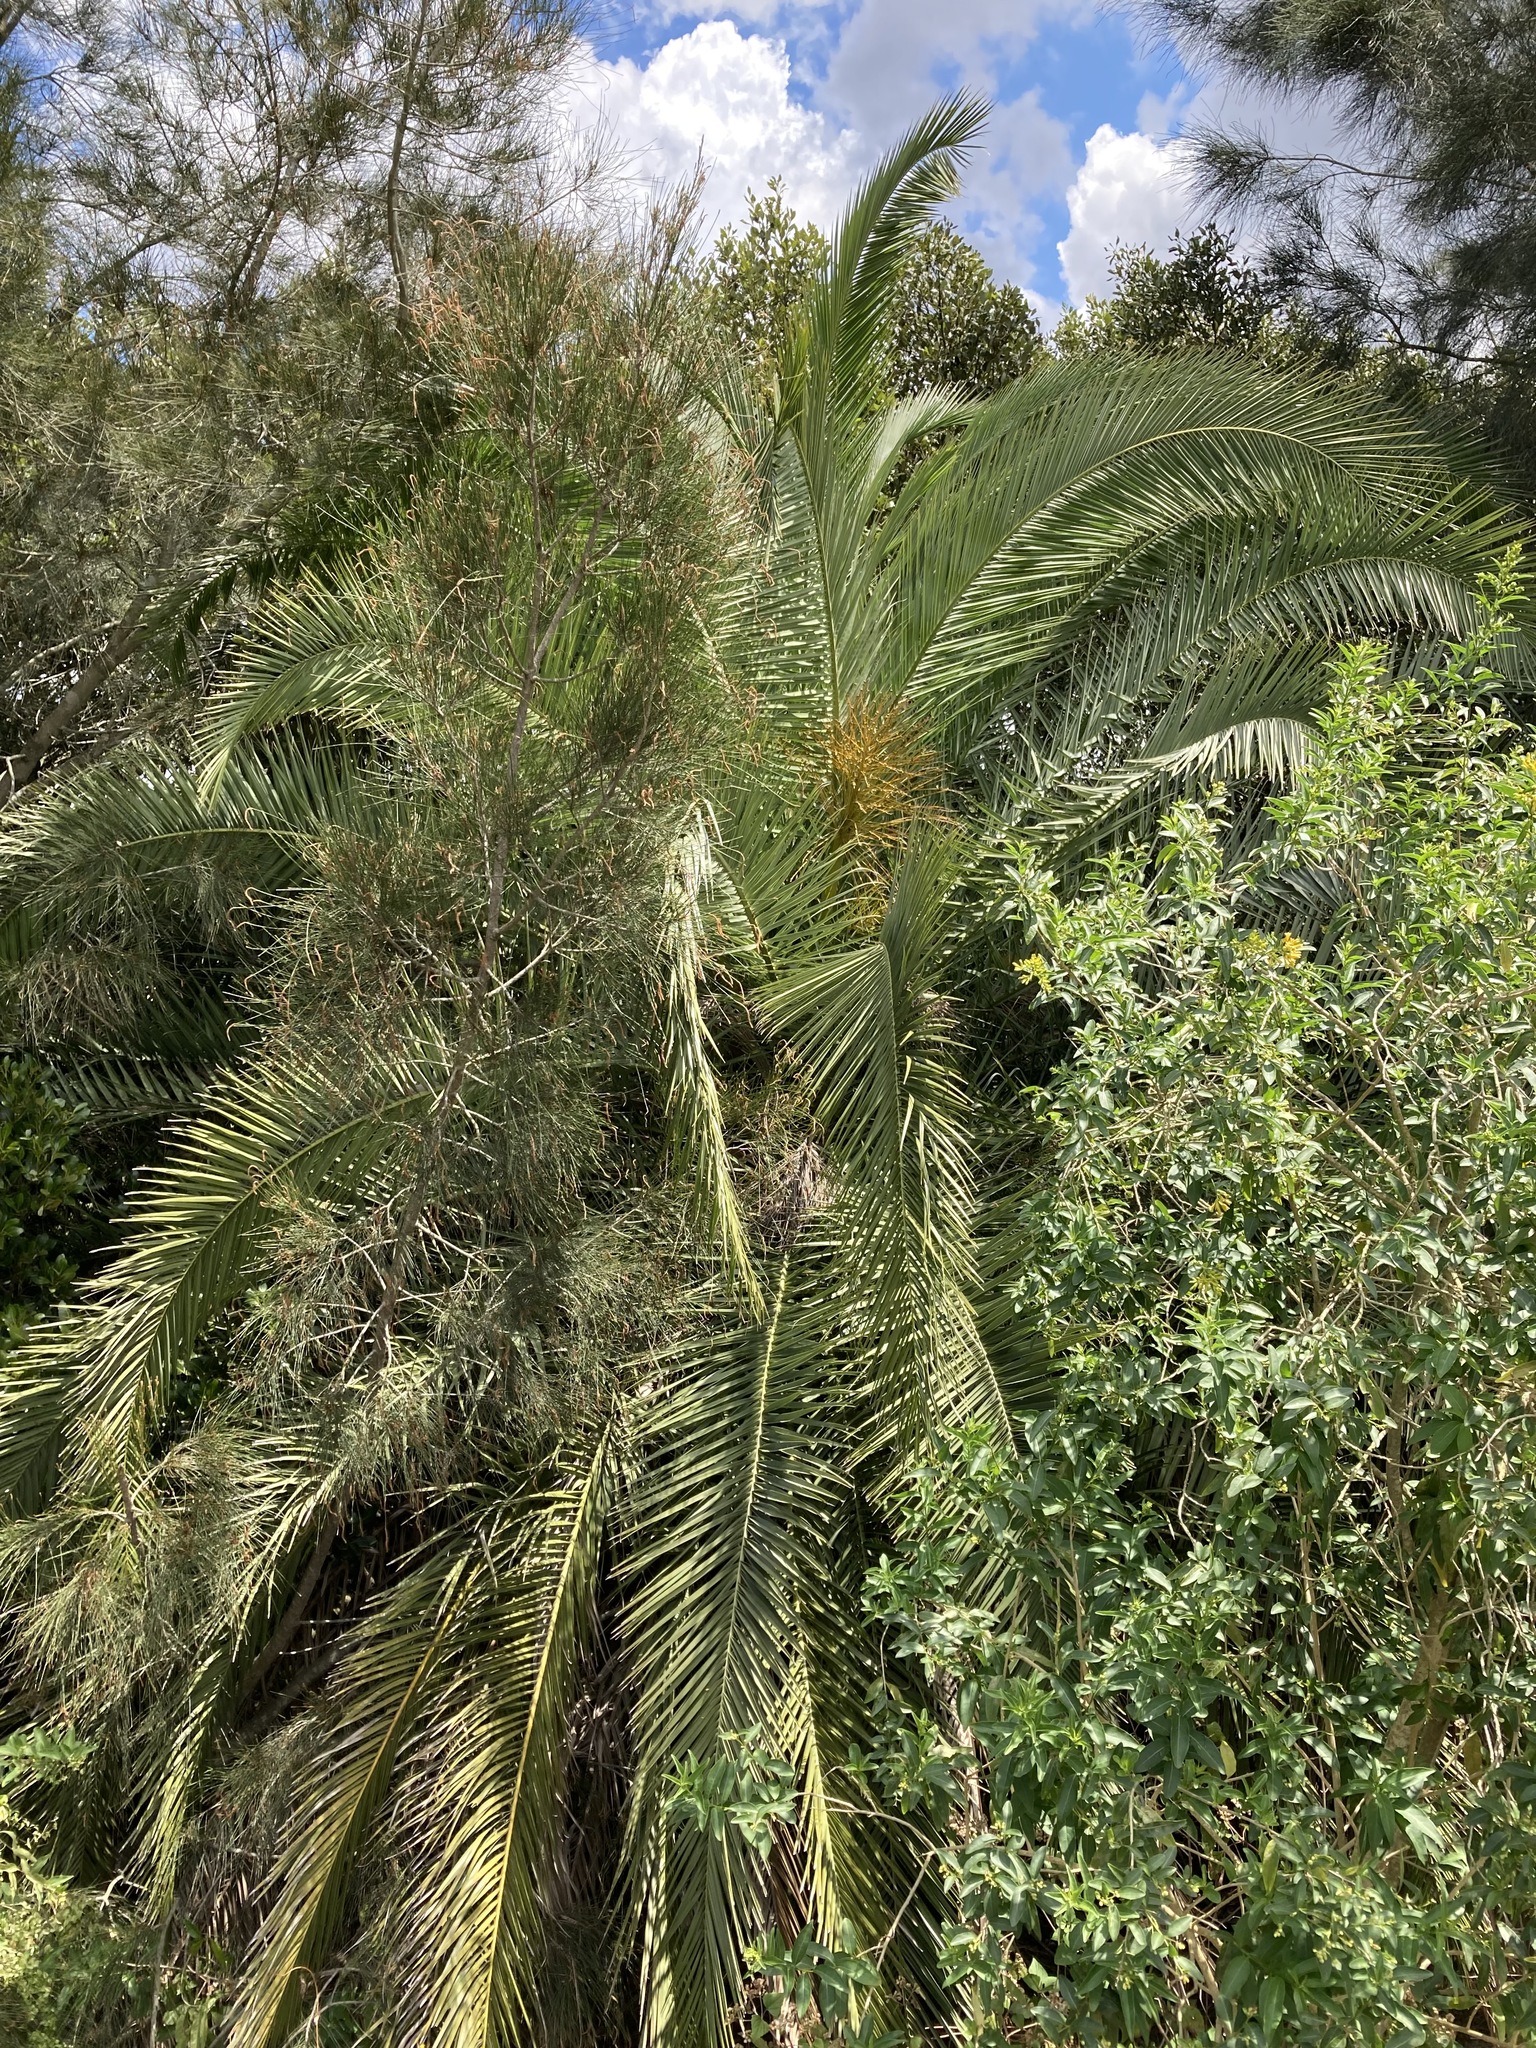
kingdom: Plantae
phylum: Tracheophyta
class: Liliopsida
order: Arecales
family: Arecaceae
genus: Phoenix
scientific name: Phoenix canariensis
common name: Canary island date palm
